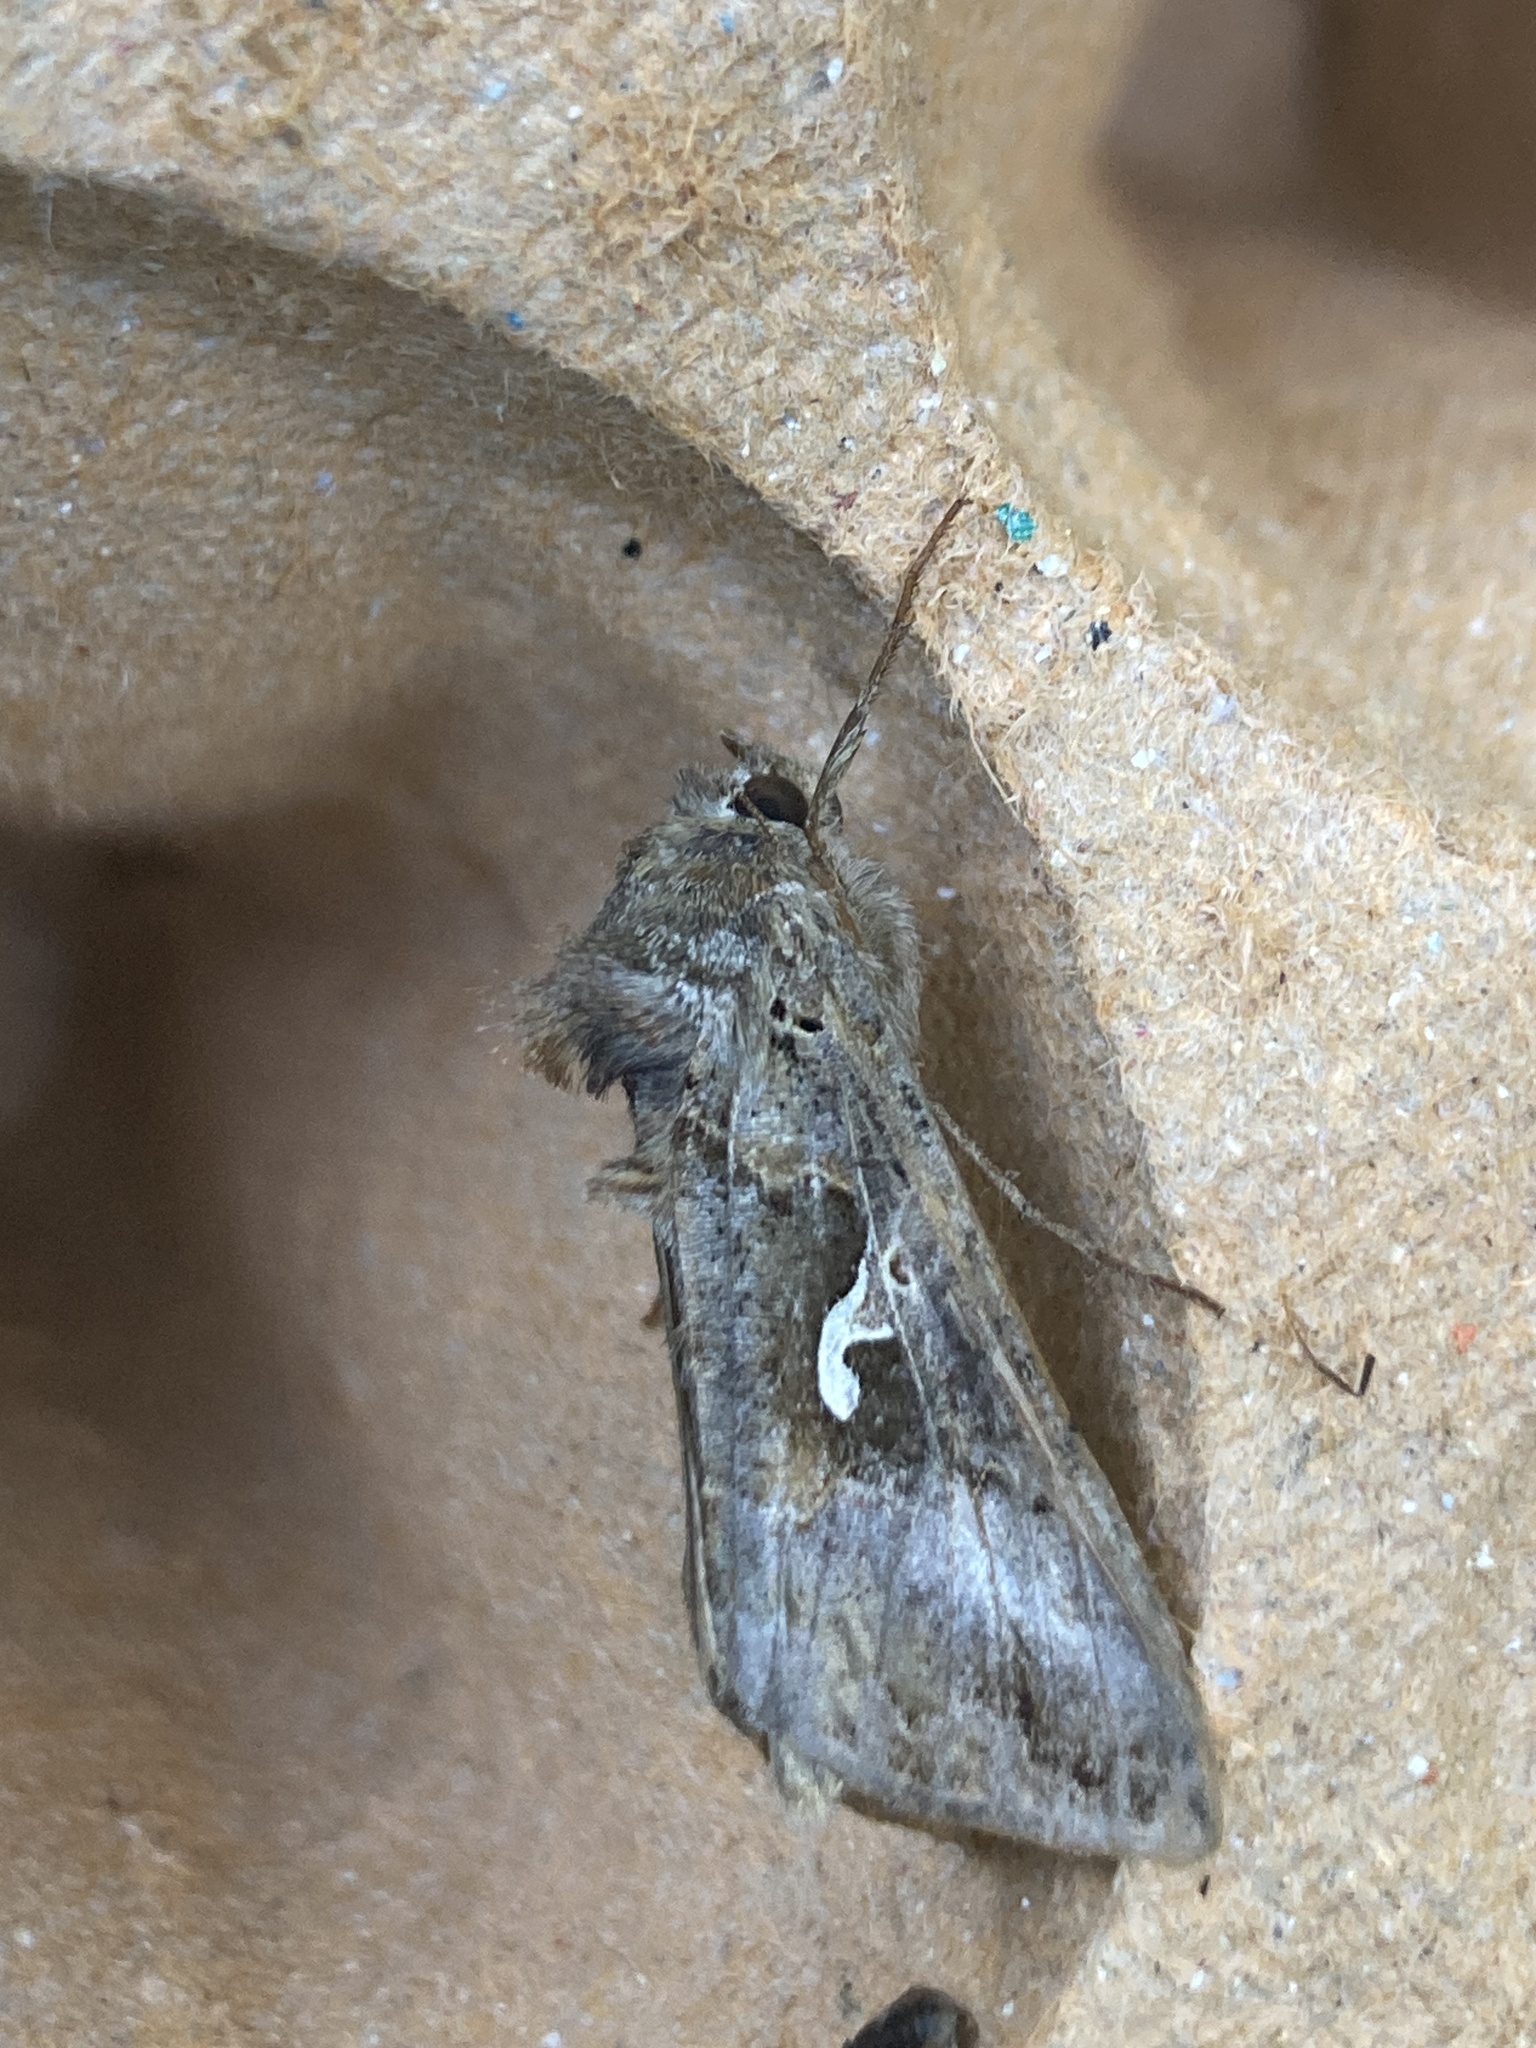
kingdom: Animalia
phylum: Arthropoda
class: Insecta
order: Lepidoptera
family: Noctuidae
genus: Autographa
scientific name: Autographa gamma
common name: Silver y
